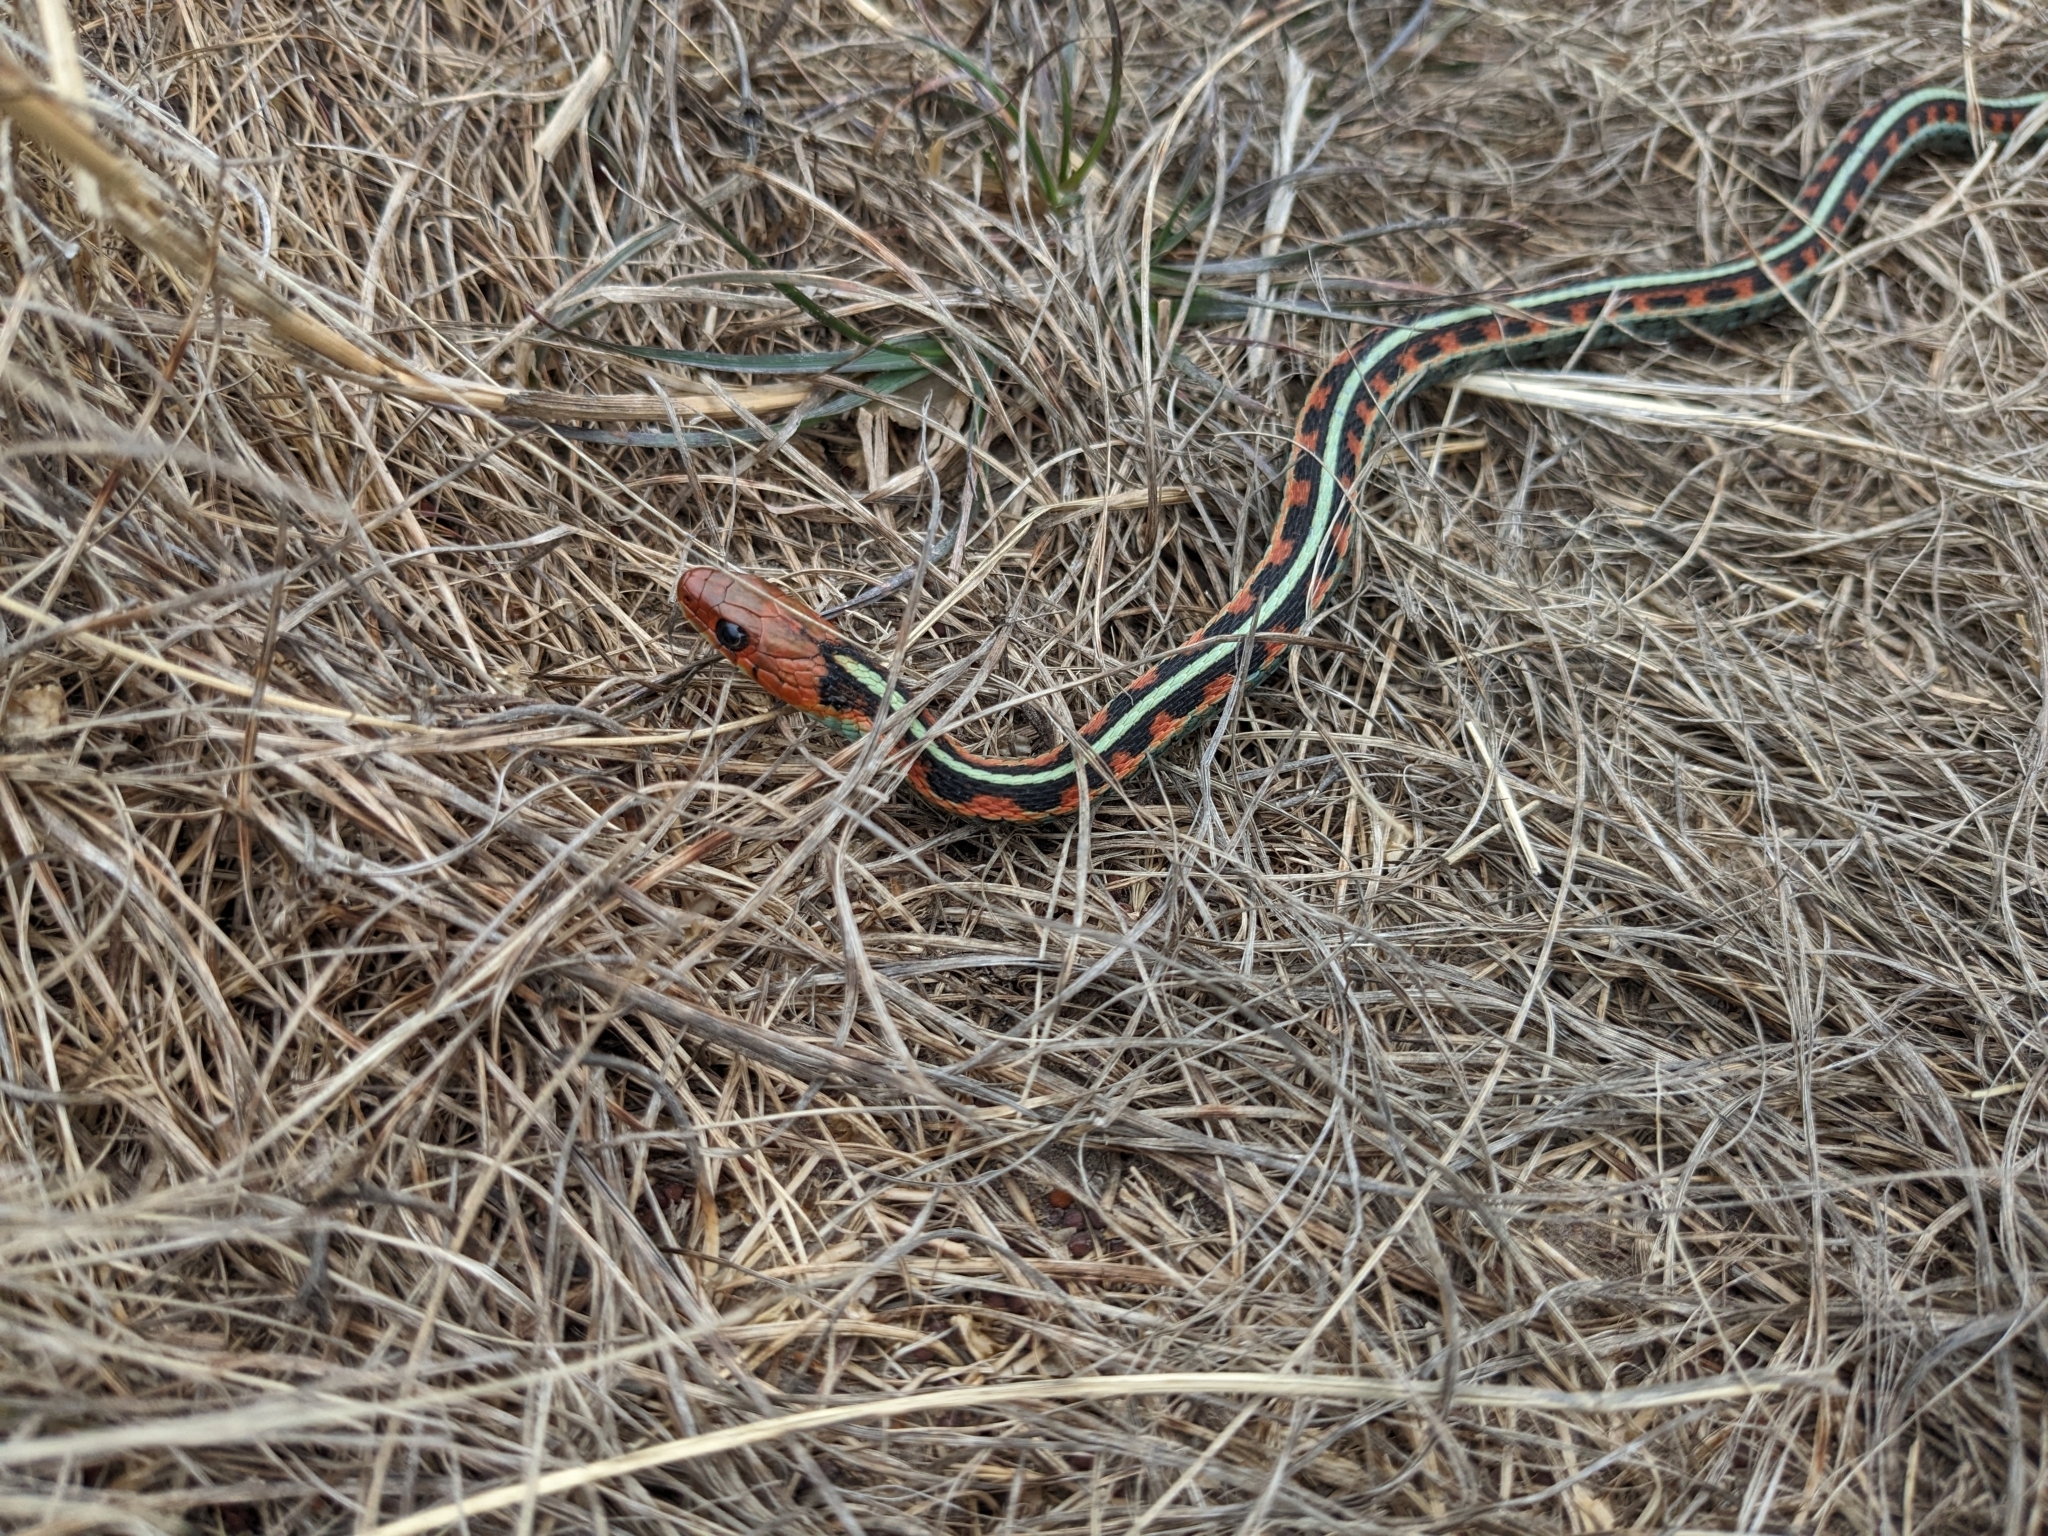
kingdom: Animalia
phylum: Chordata
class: Squamata
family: Colubridae
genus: Thamnophis
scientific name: Thamnophis sirtalis
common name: Common garter snake
